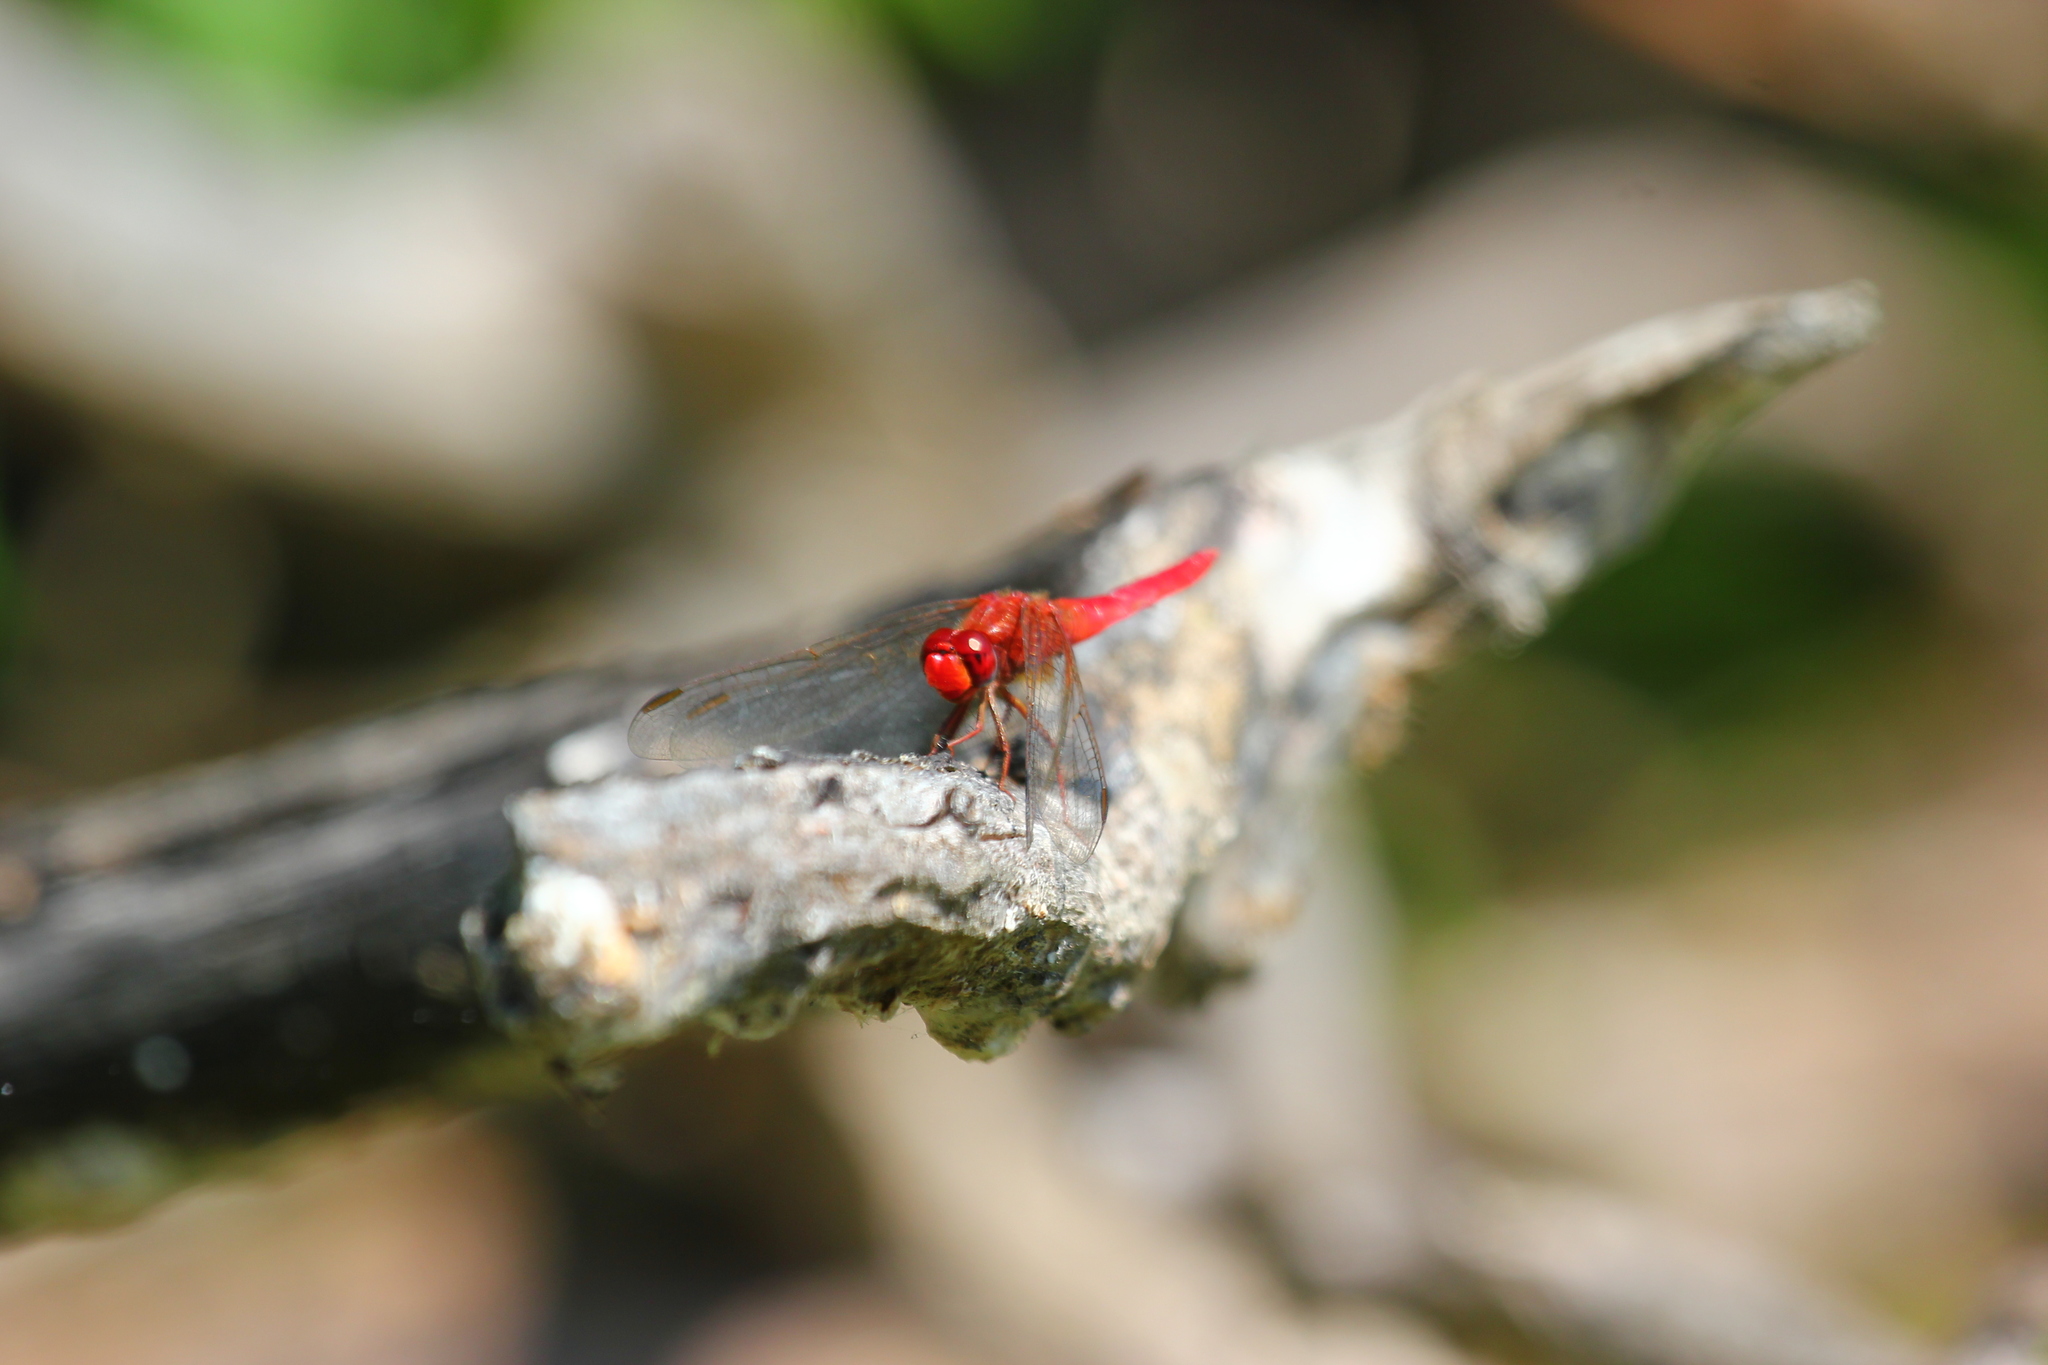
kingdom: Animalia
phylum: Arthropoda
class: Insecta
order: Odonata
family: Libellulidae
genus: Crocothemis
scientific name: Crocothemis erythraea
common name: Scarlet dragonfly
